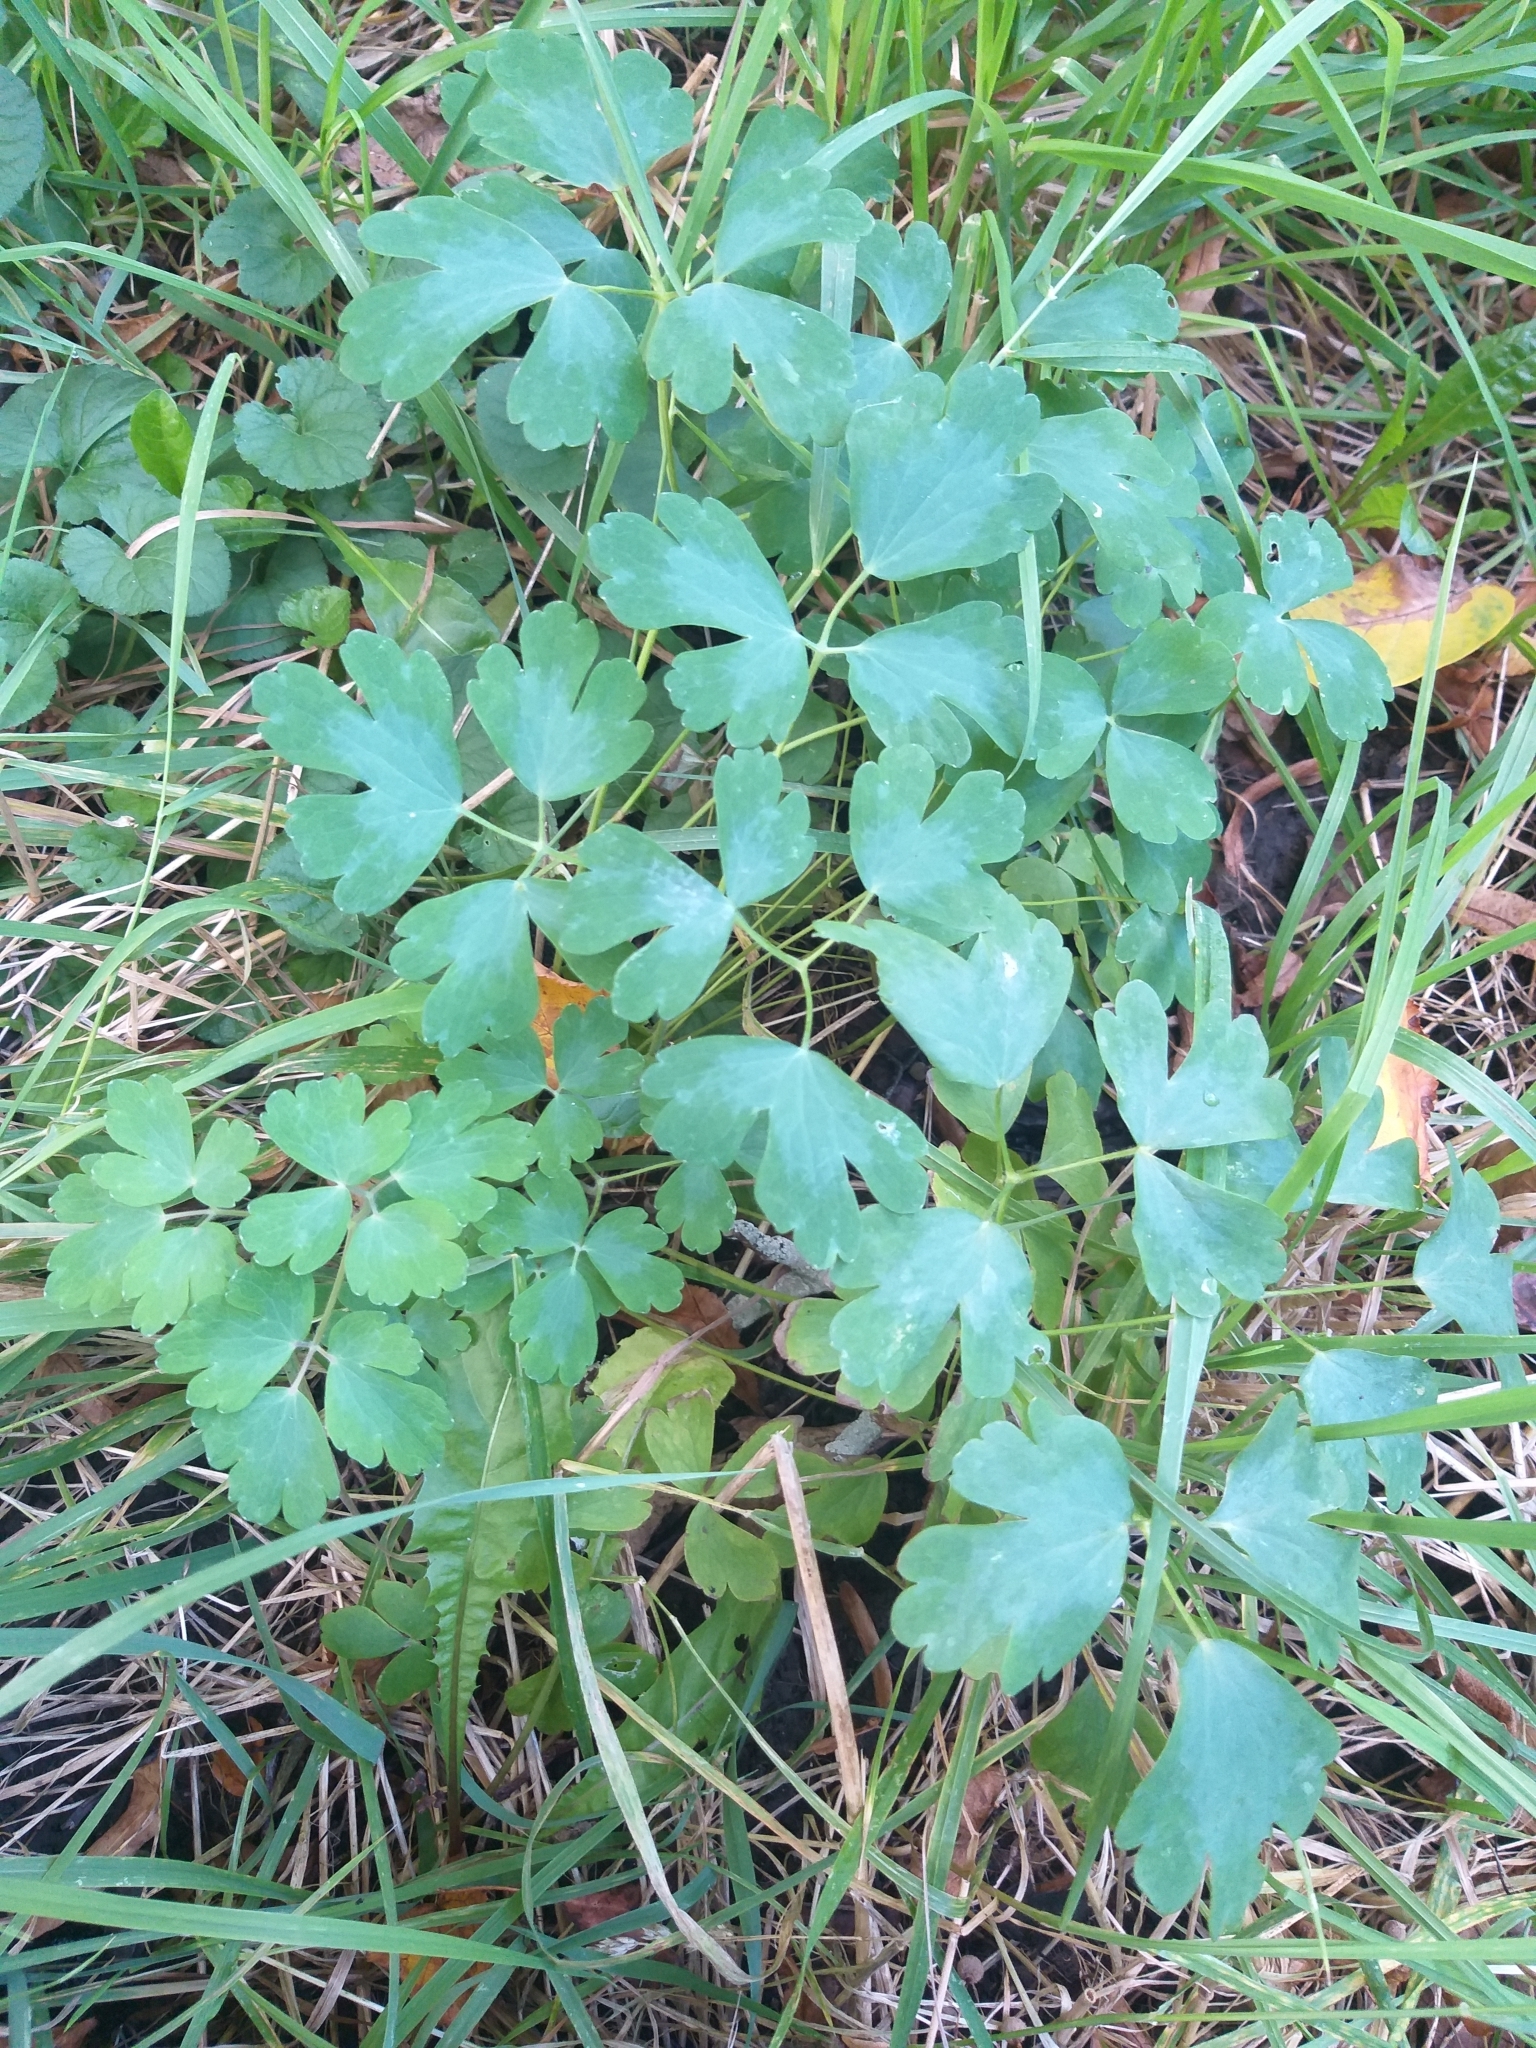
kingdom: Plantae
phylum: Tracheophyta
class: Magnoliopsida
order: Ranunculales
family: Ranunculaceae
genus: Aquilegia
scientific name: Aquilegia vulgaris
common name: Columbine
